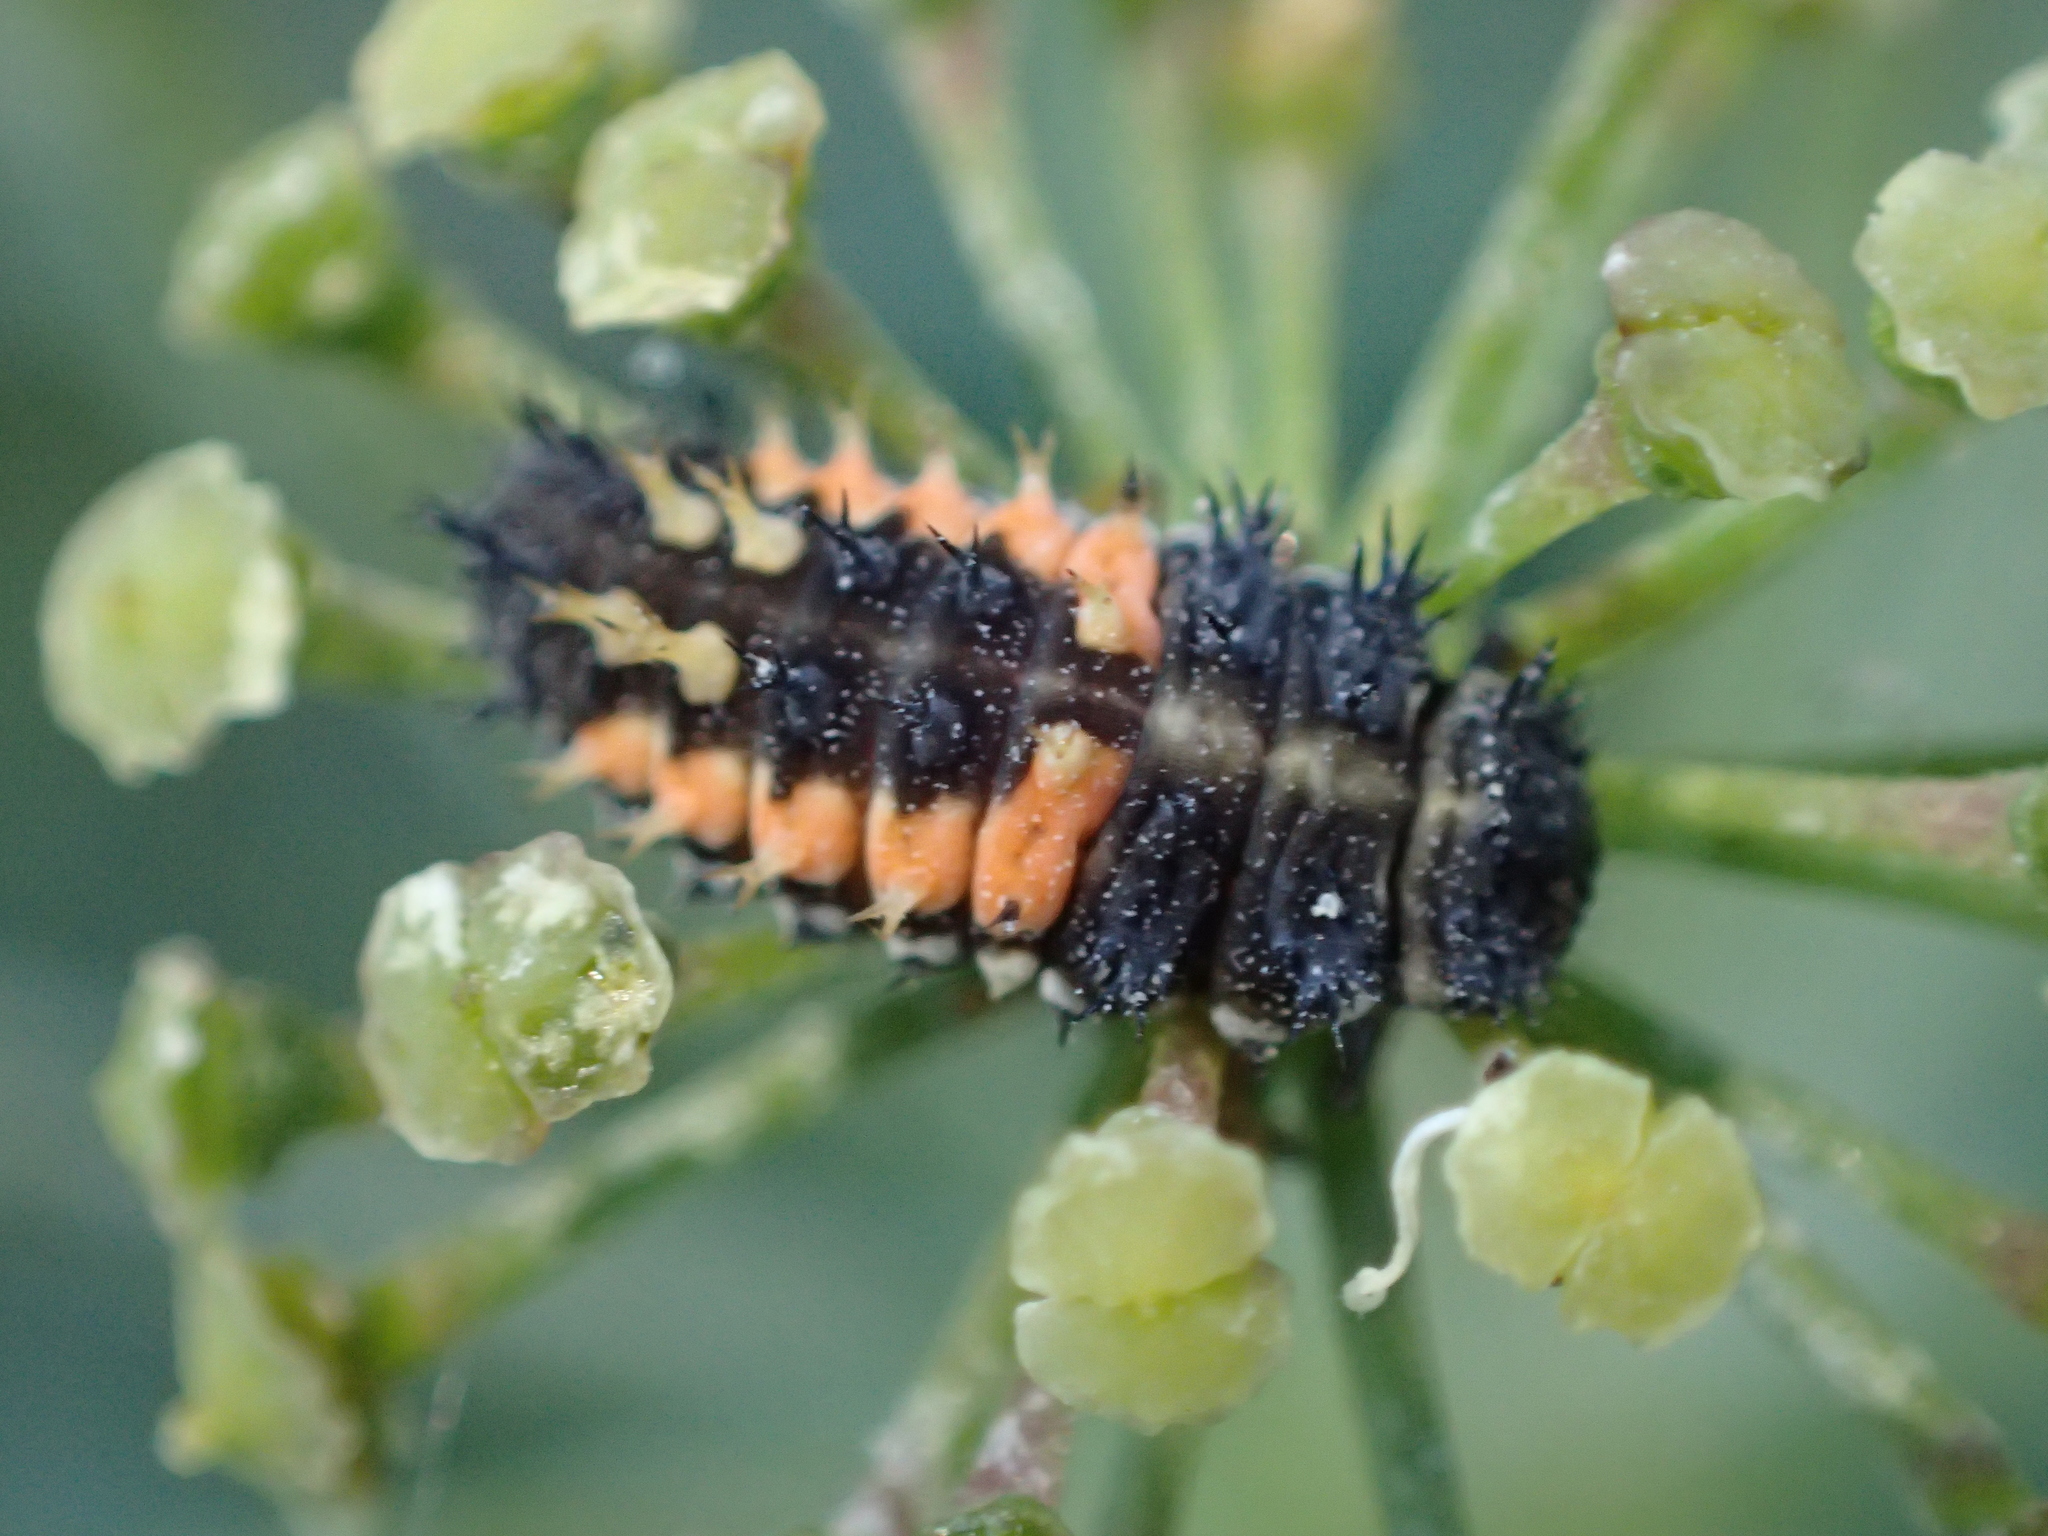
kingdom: Animalia
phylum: Arthropoda
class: Insecta
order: Coleoptera
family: Coccinellidae
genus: Harmonia
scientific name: Harmonia axyridis
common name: Harlequin ladybird
